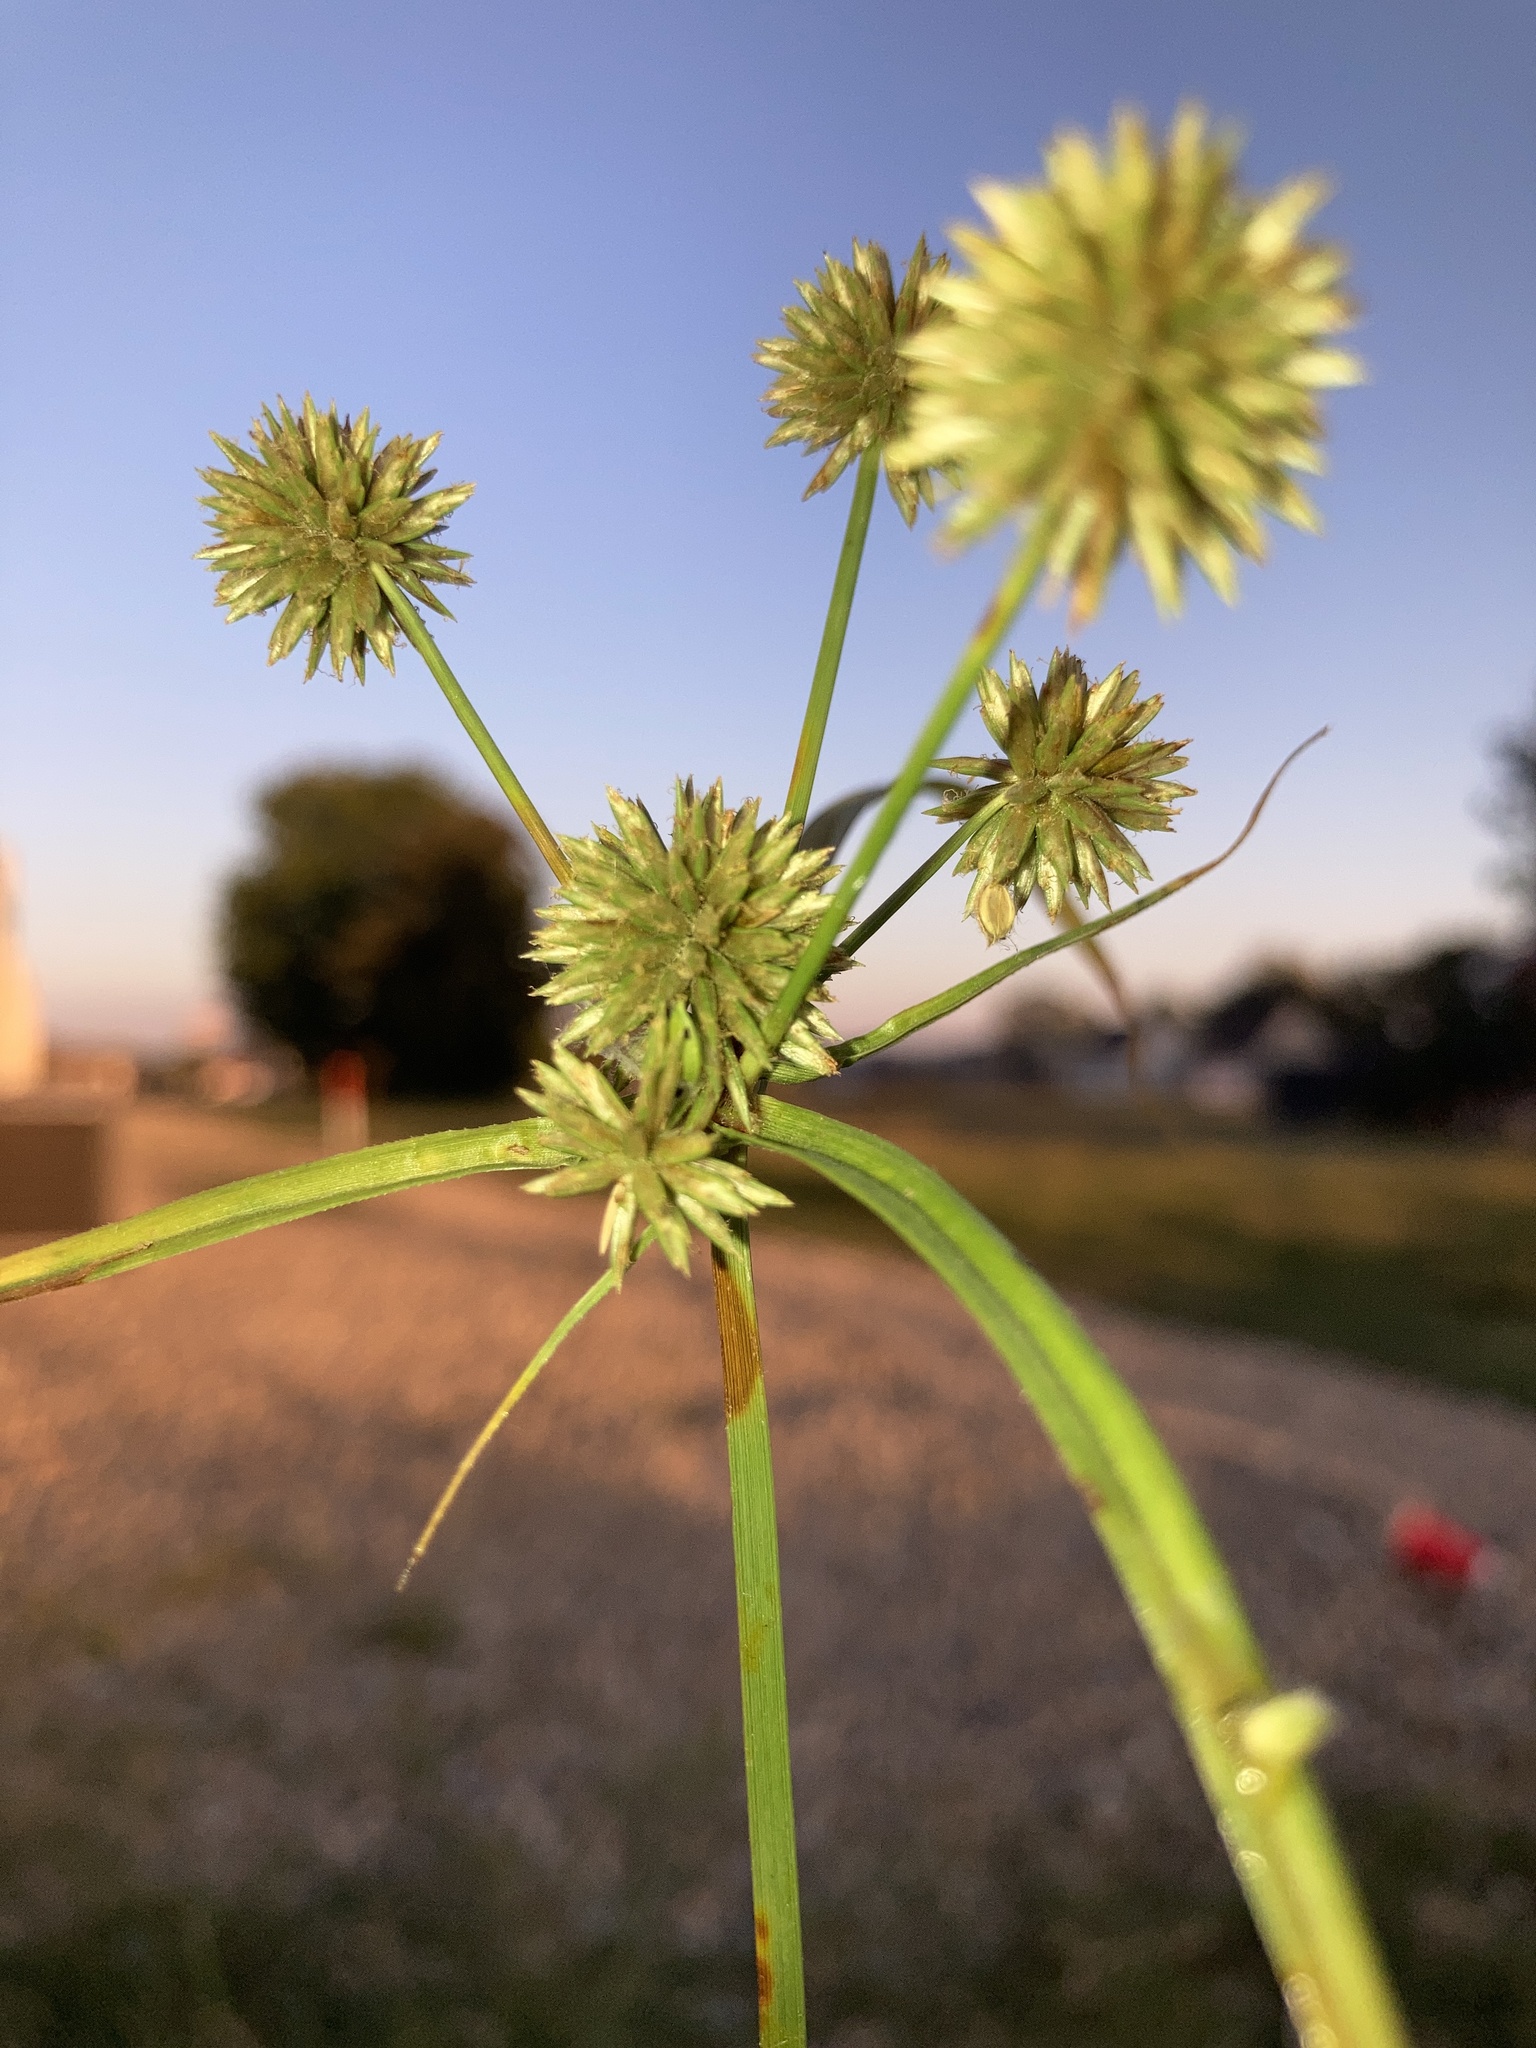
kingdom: Plantae
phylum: Tracheophyta
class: Liliopsida
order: Poales
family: Cyperaceae
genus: Cyperus
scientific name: Cyperus echinatus
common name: Teasel sedge
